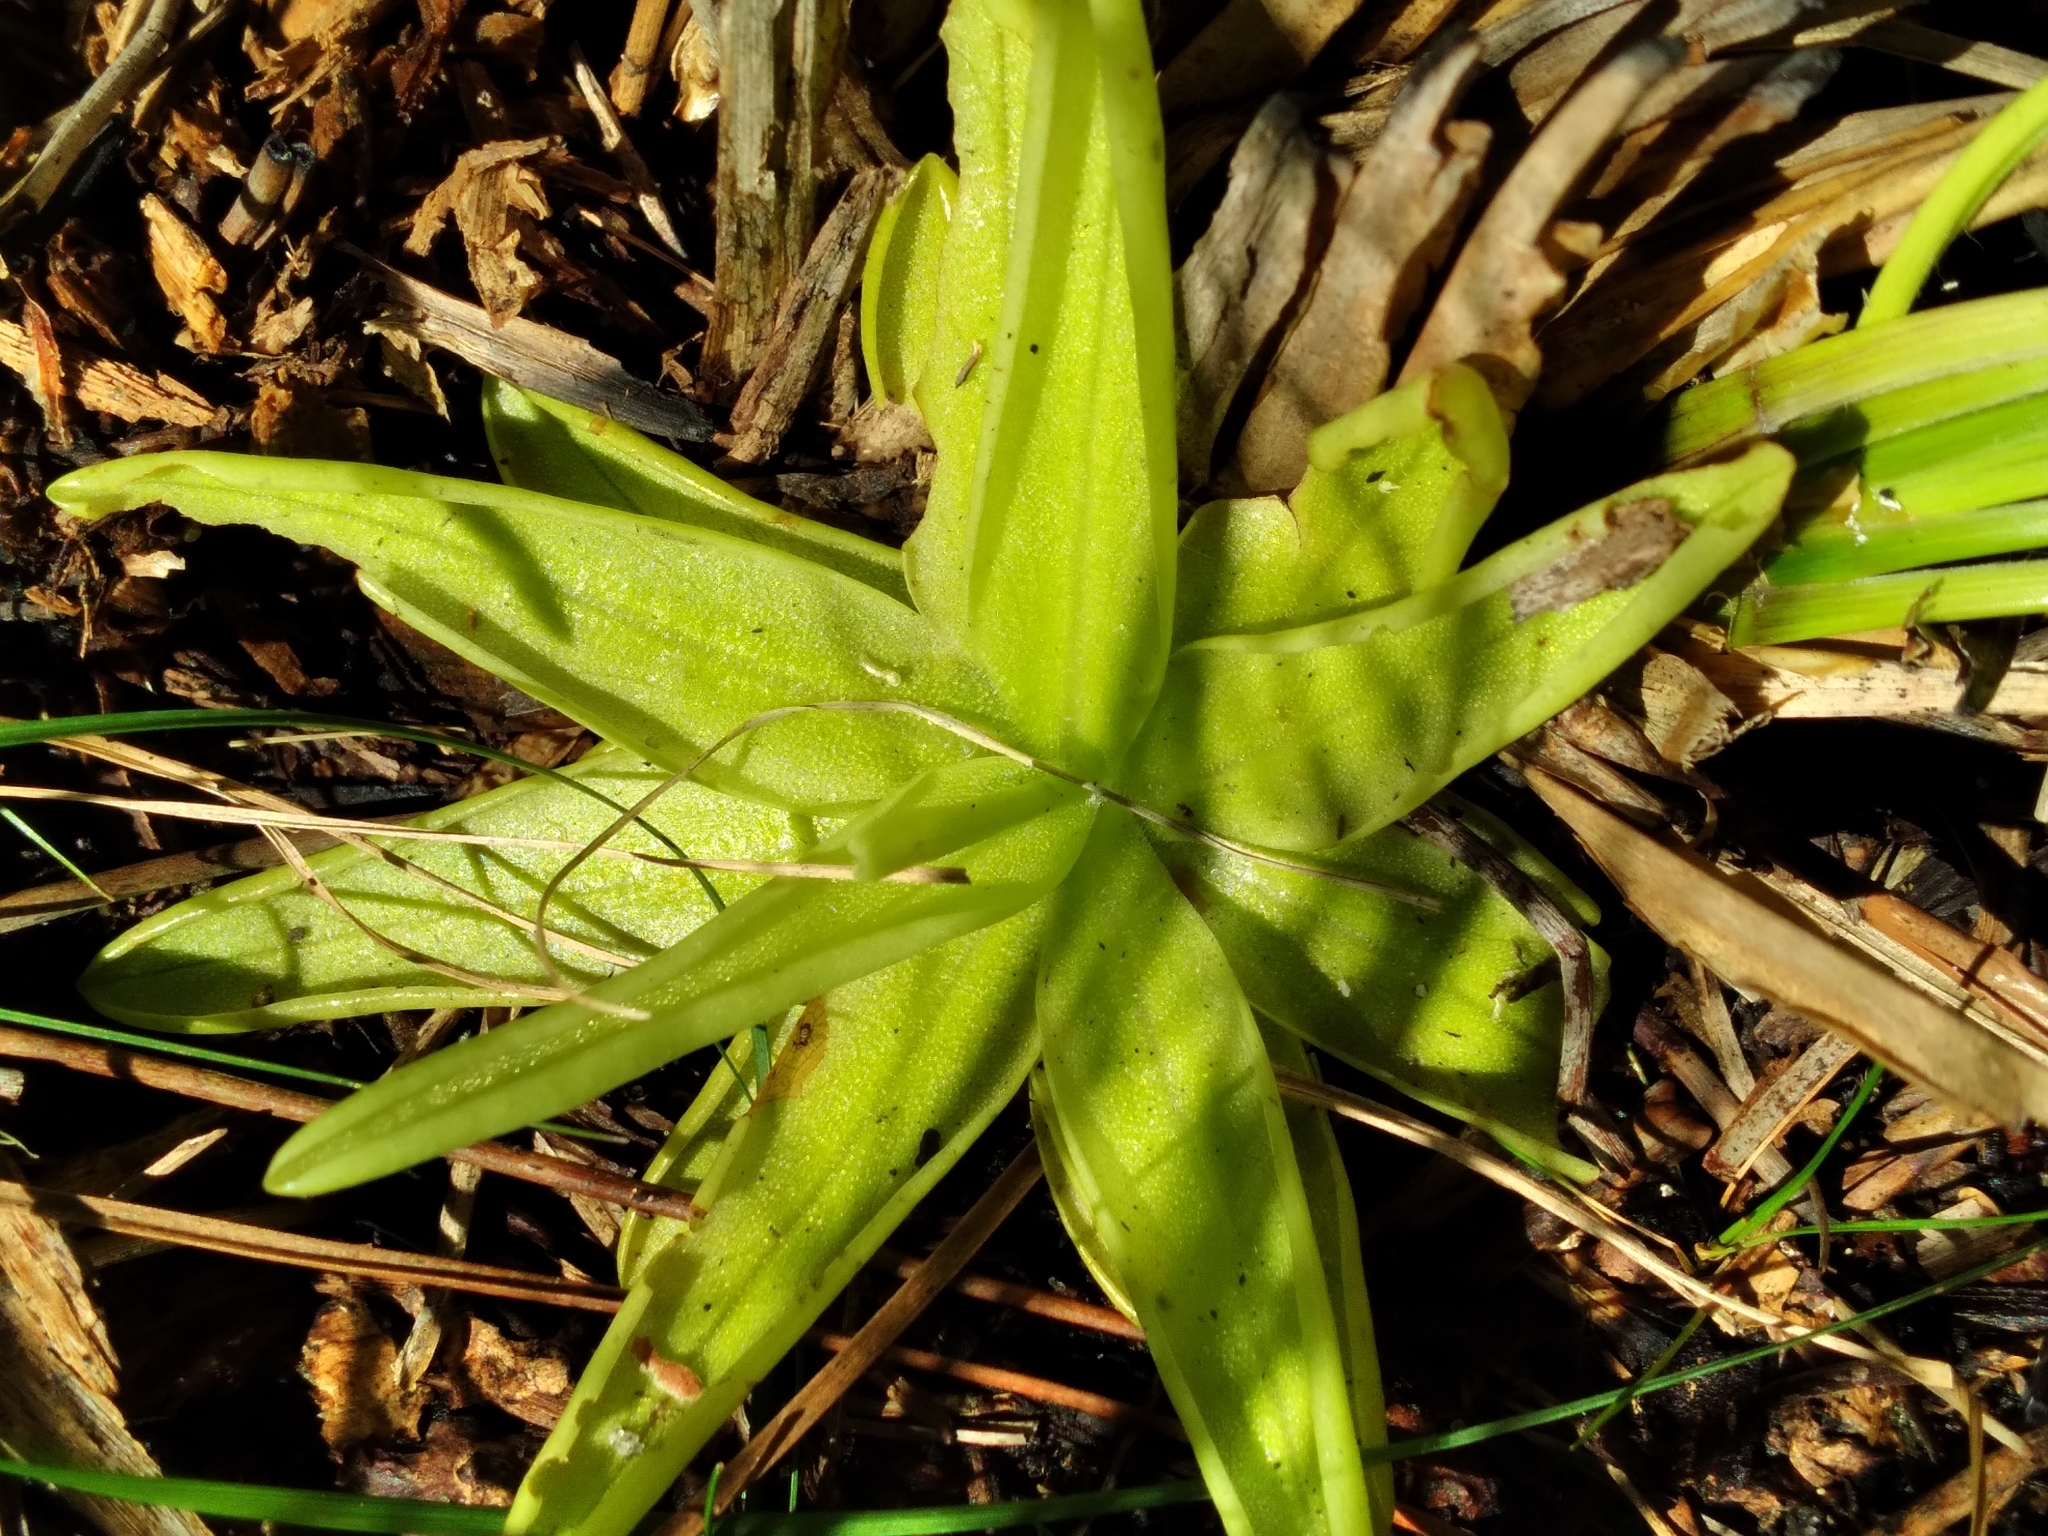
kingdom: Plantae
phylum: Tracheophyta
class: Magnoliopsida
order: Lamiales
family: Lentibulariaceae
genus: Pinguicula
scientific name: Pinguicula lutea
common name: Yellow butterwort
